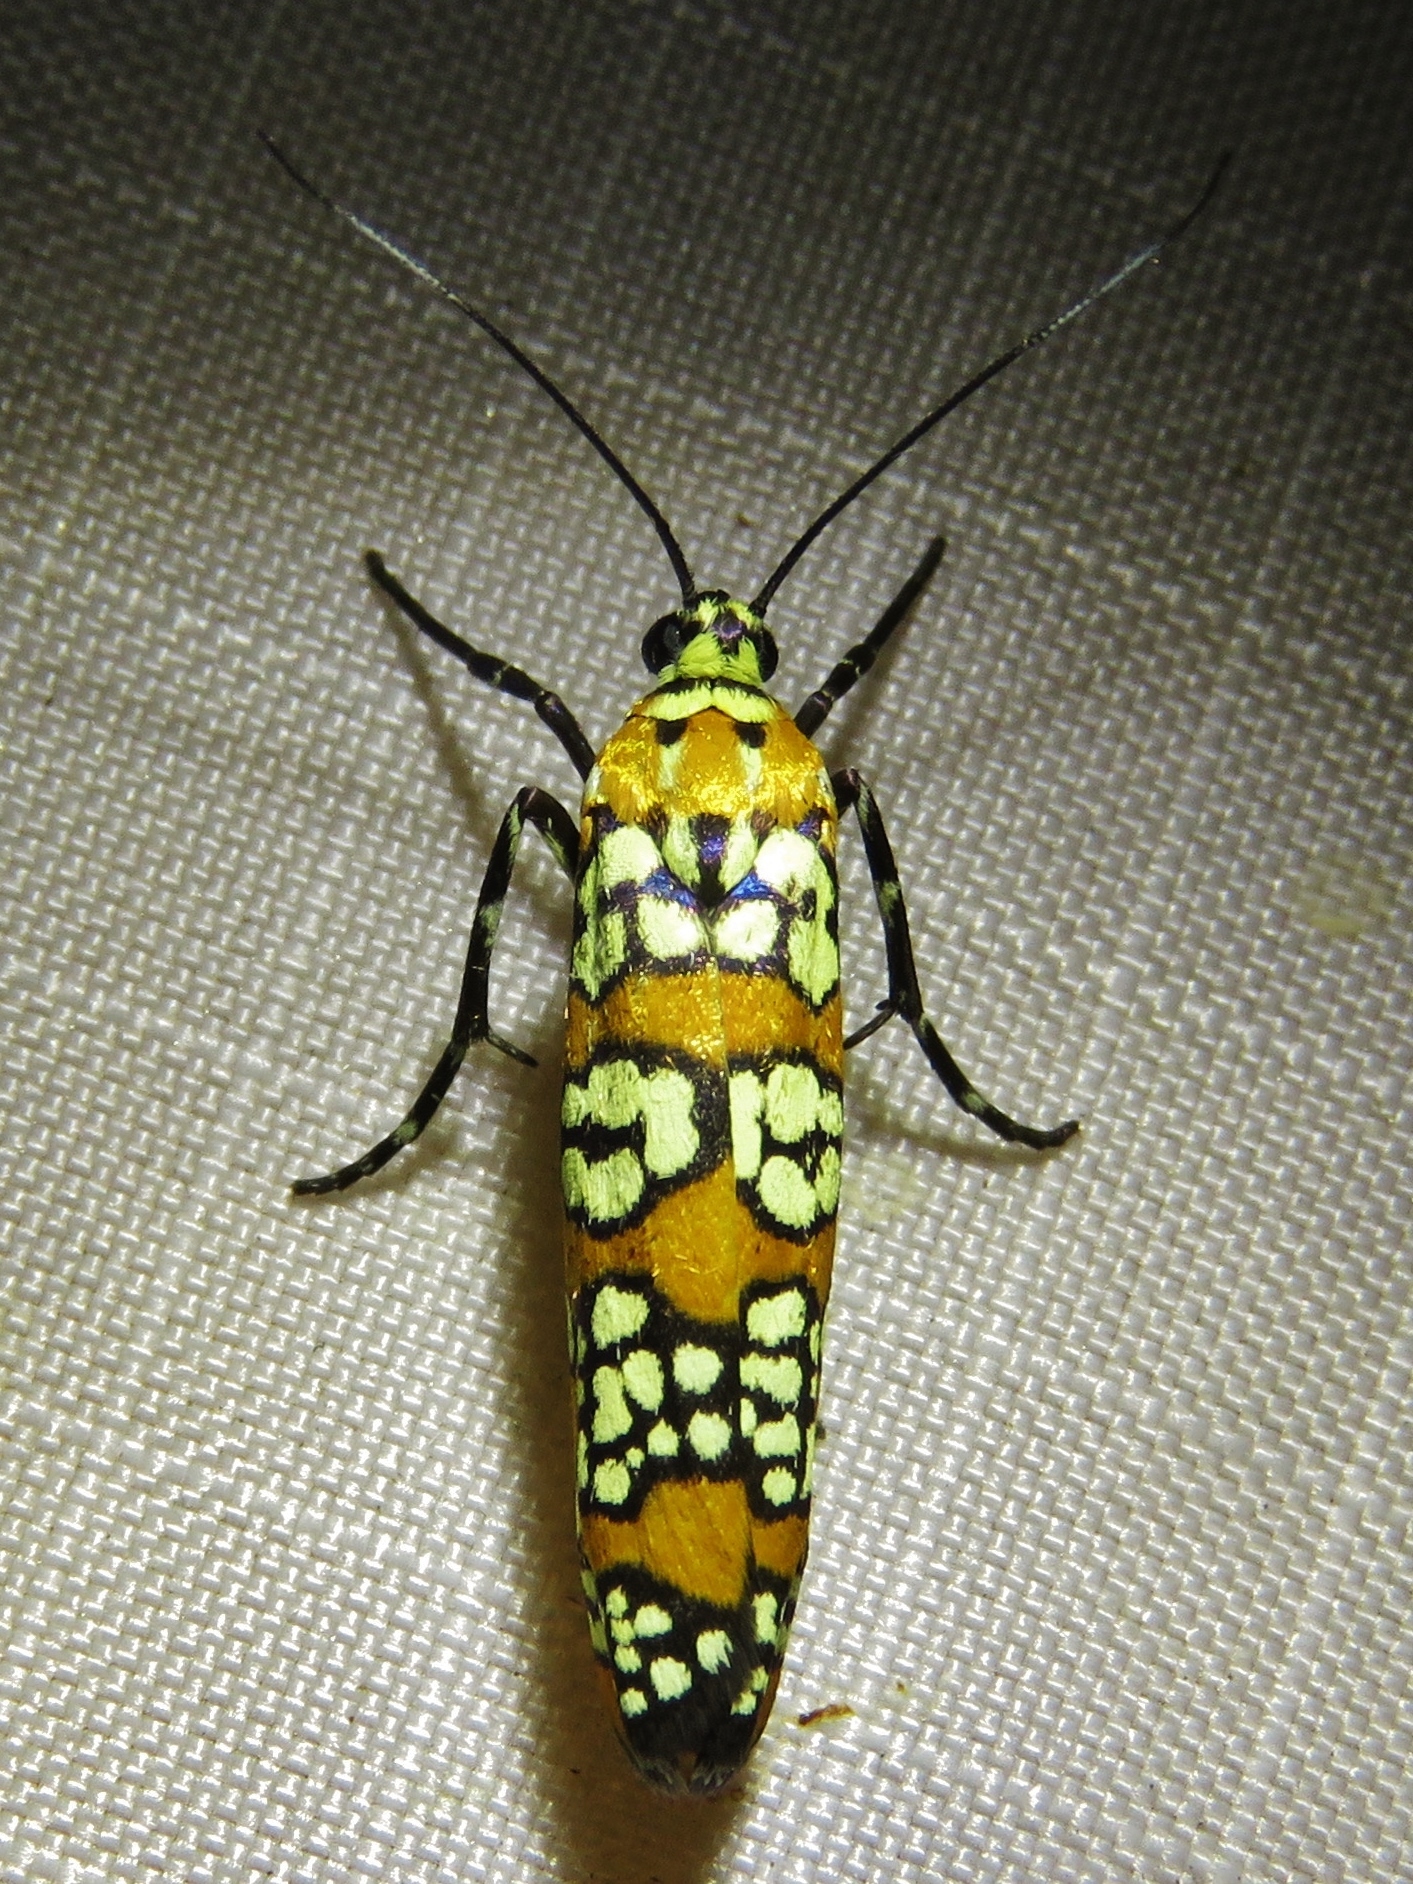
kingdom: Animalia
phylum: Arthropoda
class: Insecta
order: Lepidoptera
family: Attevidae
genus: Atteva
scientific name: Atteva punctella
